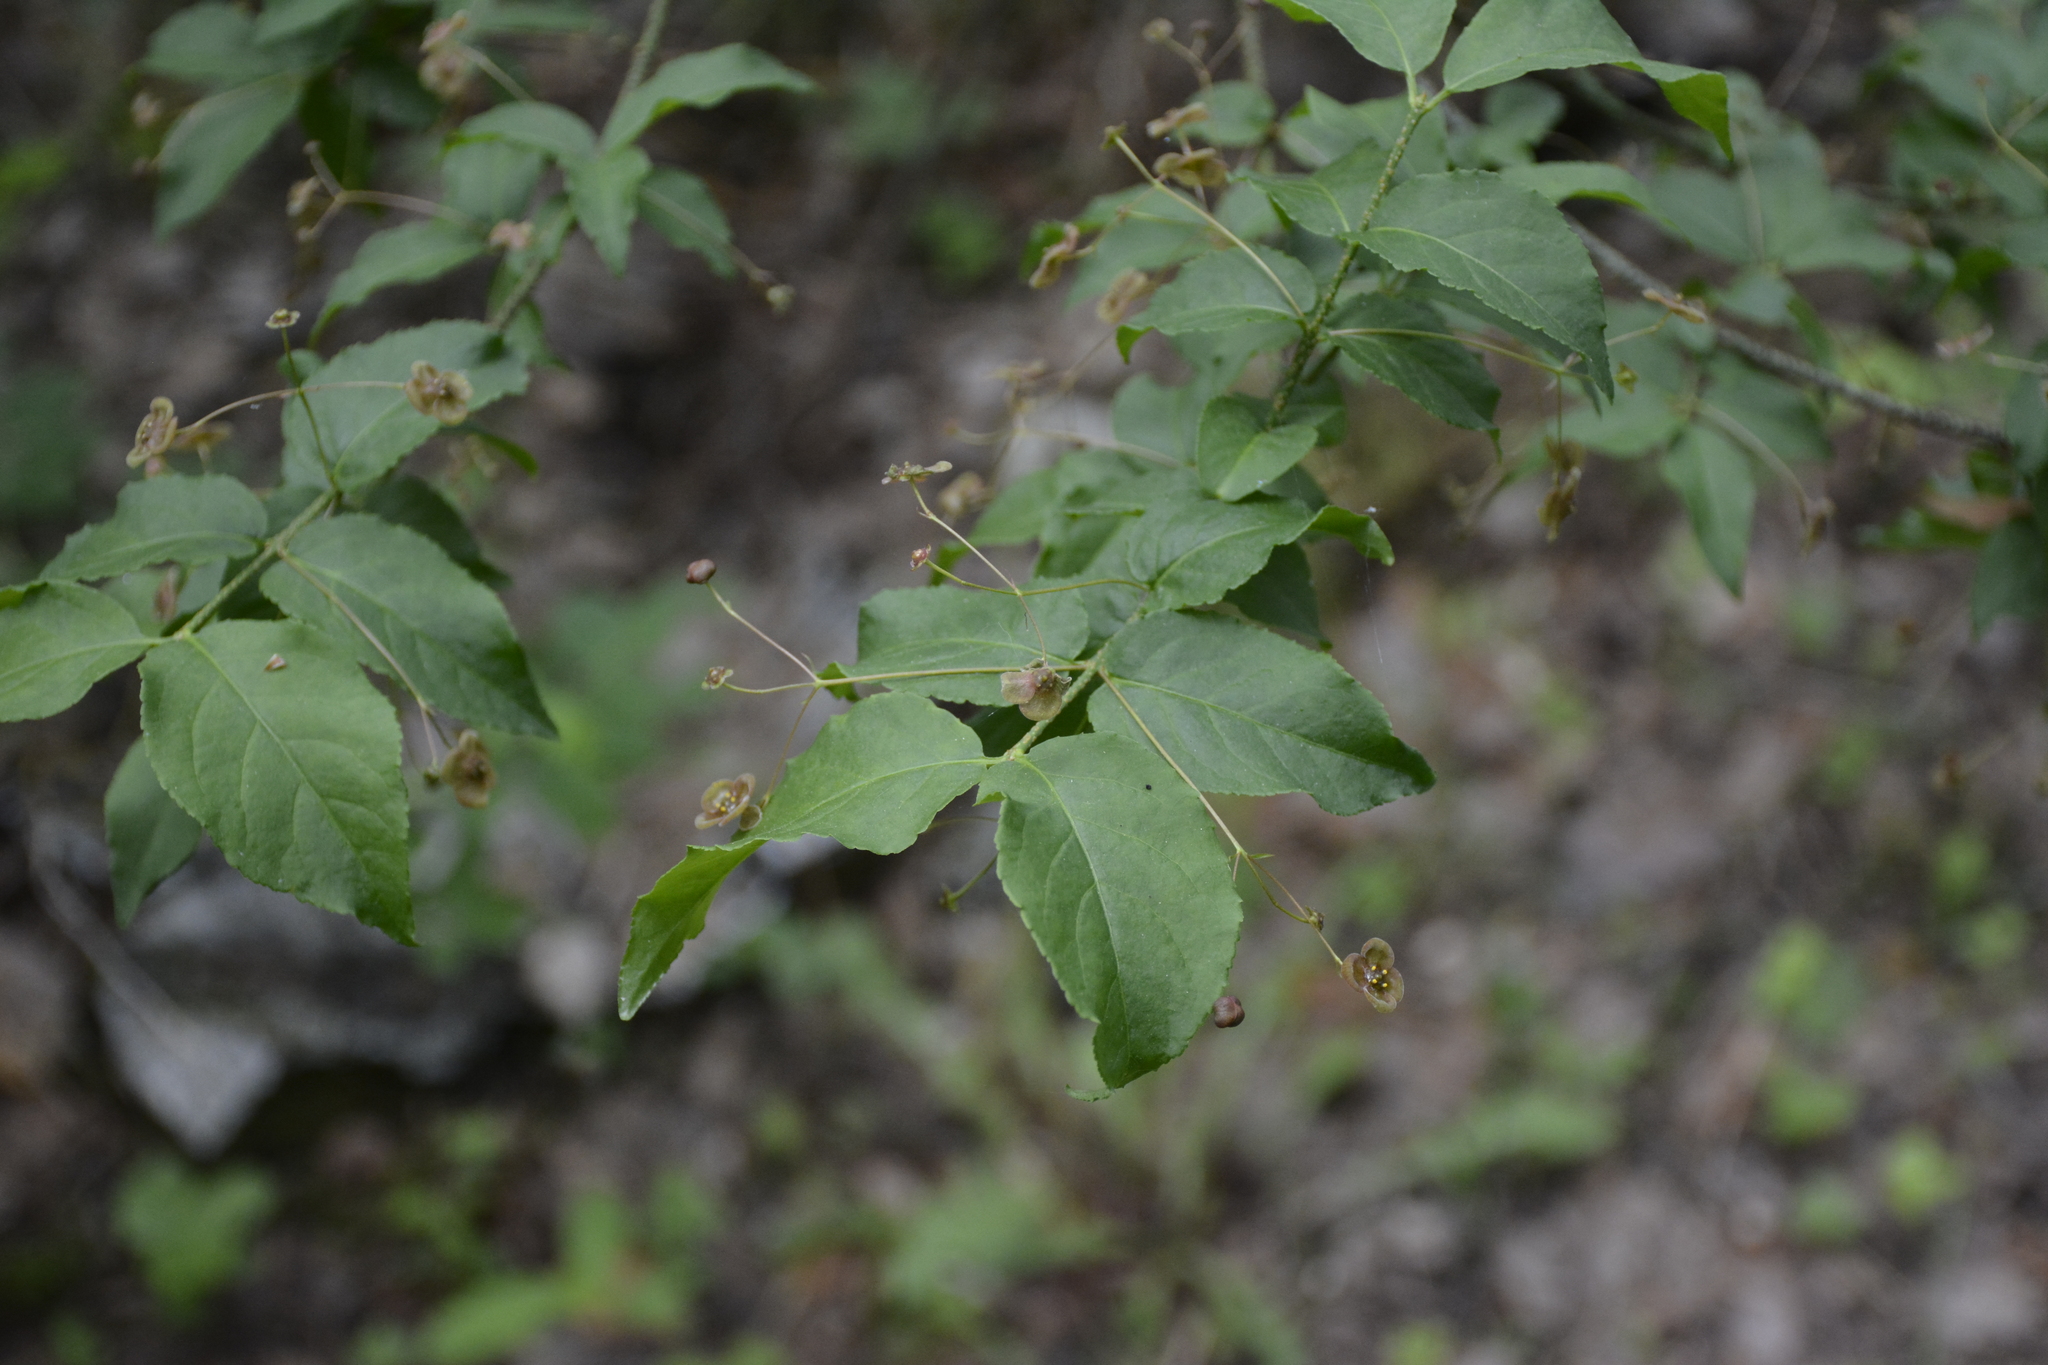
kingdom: Plantae
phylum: Tracheophyta
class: Magnoliopsida
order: Celastrales
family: Celastraceae
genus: Euonymus
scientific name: Euonymus verrucosus
